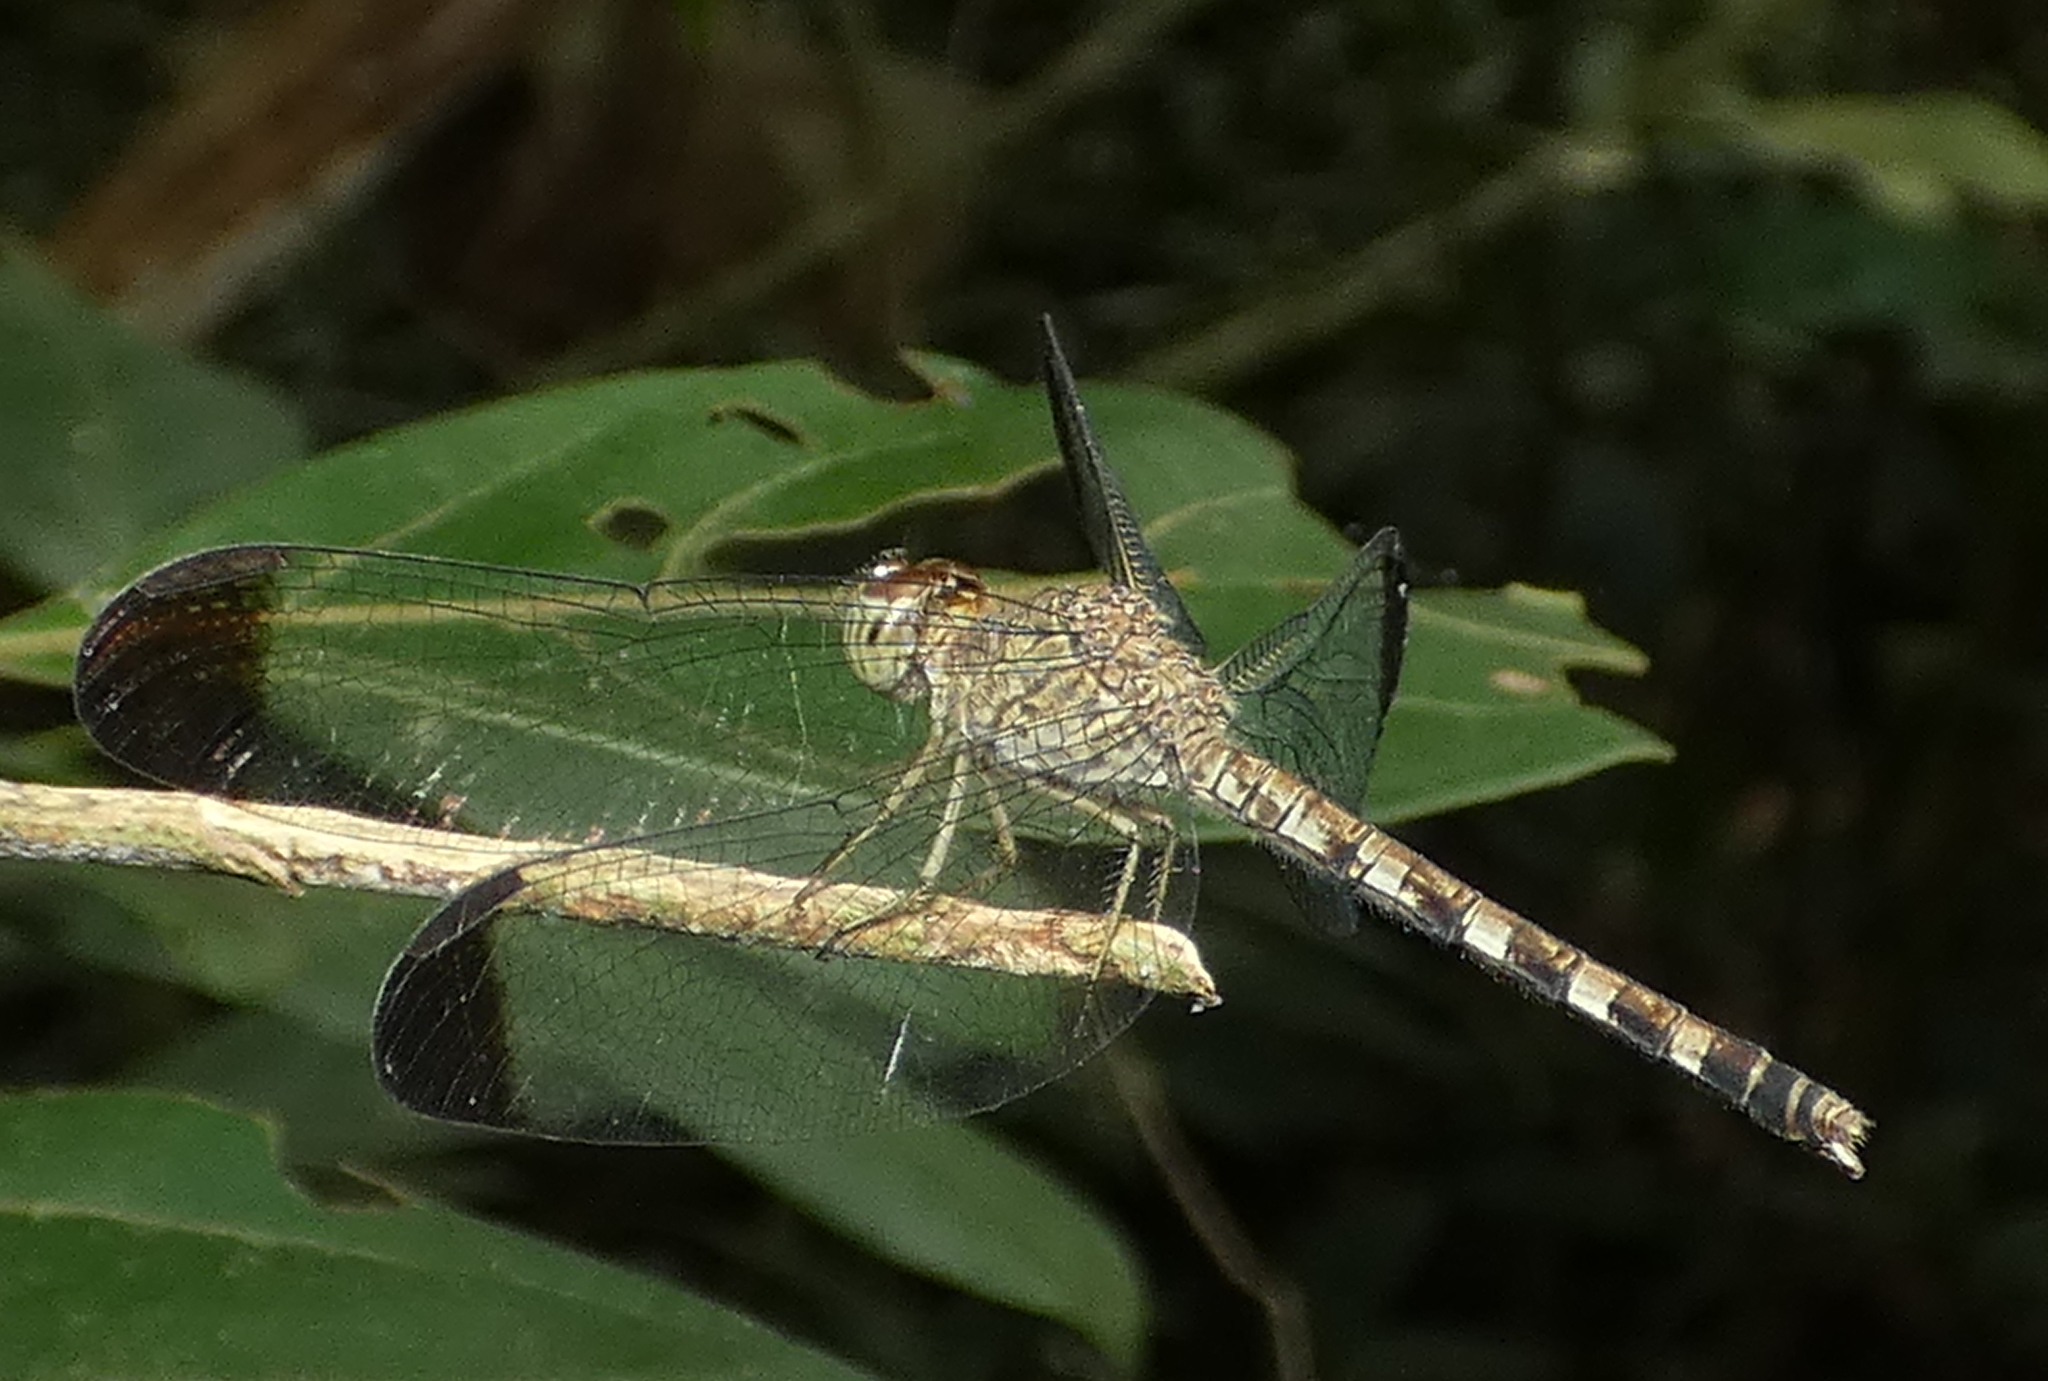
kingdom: Animalia
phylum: Arthropoda
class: Insecta
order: Odonata
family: Libellulidae
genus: Uracis
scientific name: Uracis imbuta
